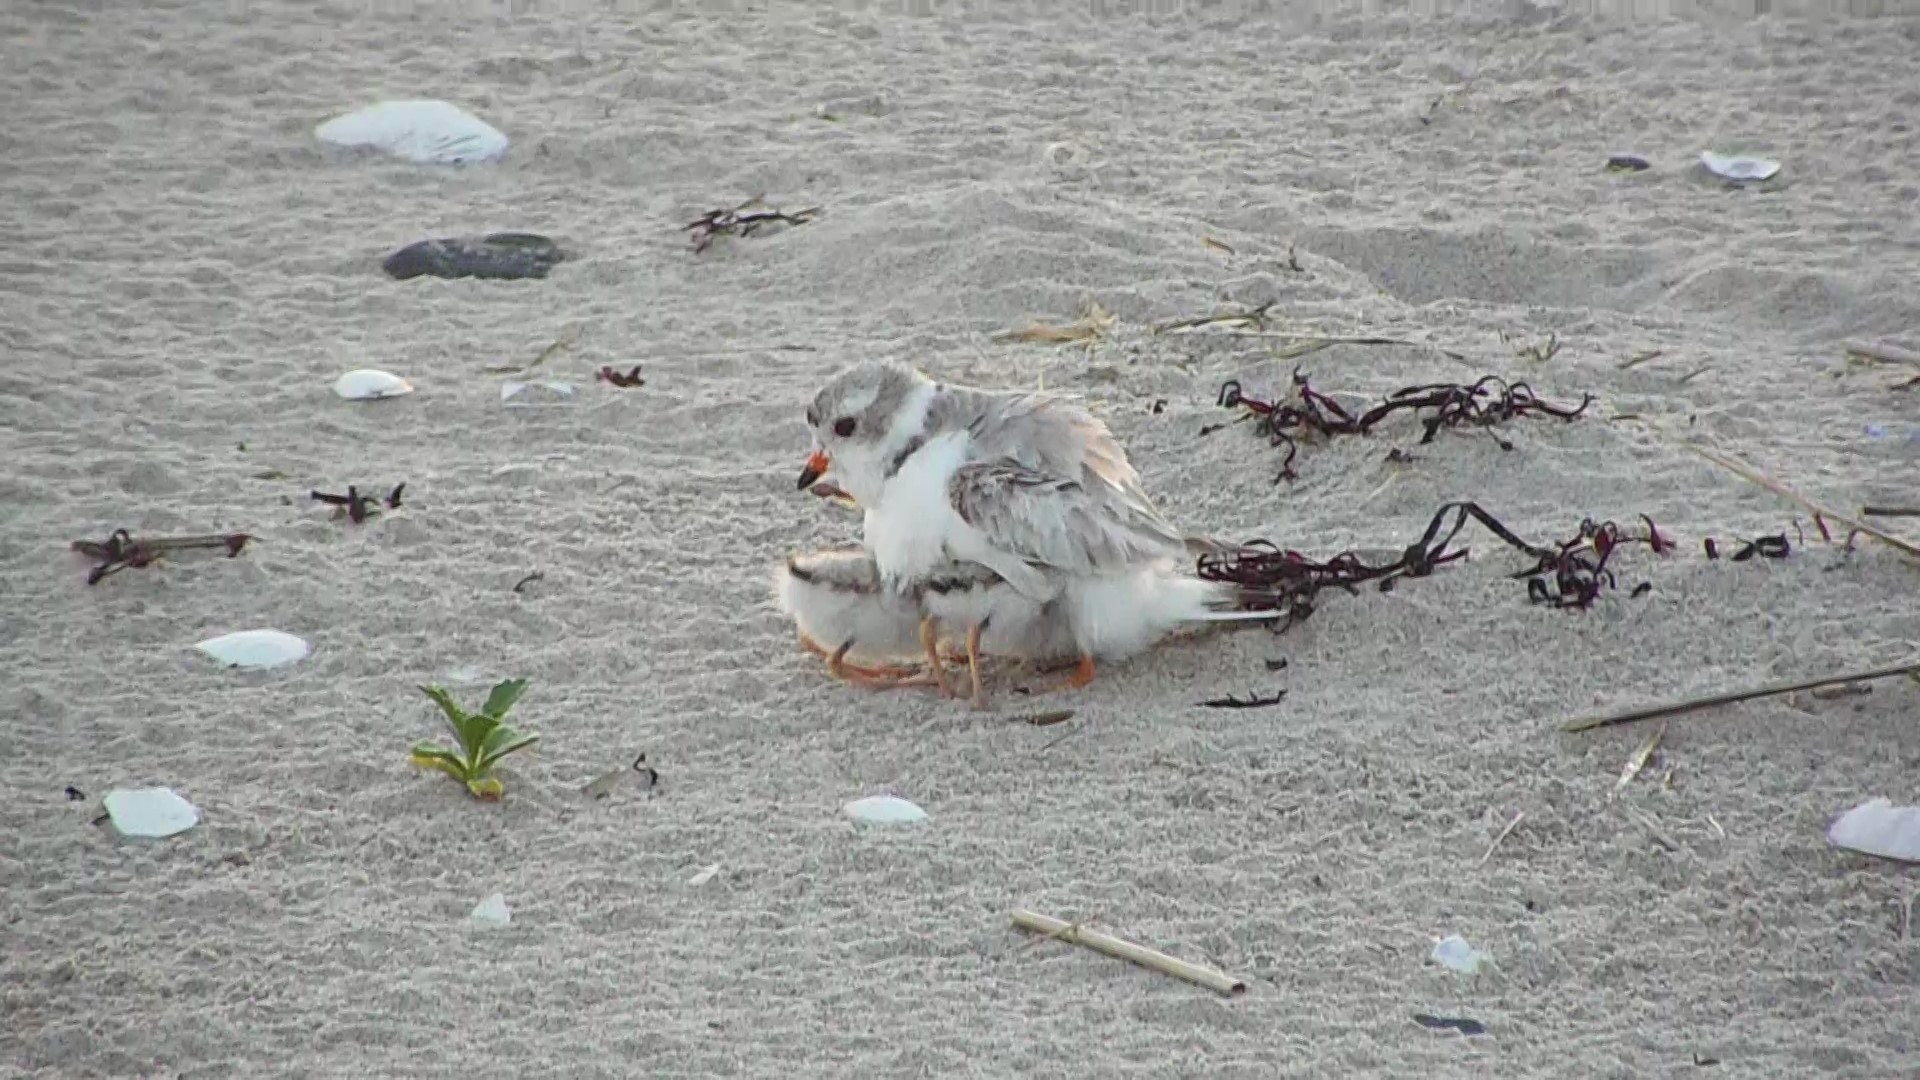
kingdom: Animalia
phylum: Chordata
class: Aves
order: Charadriiformes
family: Charadriidae
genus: Charadrius
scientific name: Charadrius melodus
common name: Piping plover
